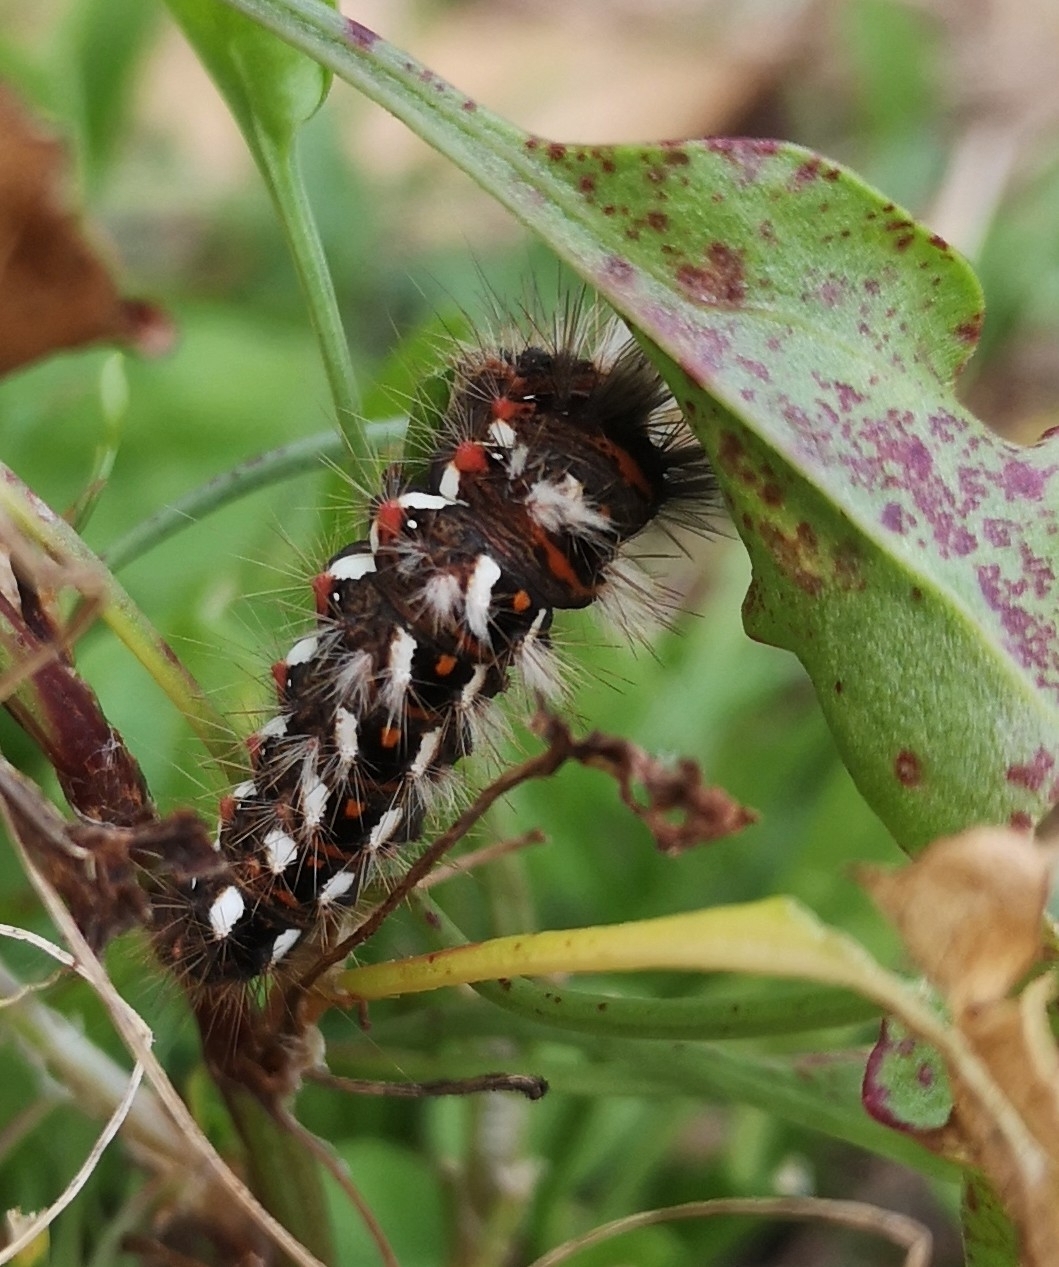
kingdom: Animalia
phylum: Arthropoda
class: Insecta
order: Lepidoptera
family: Noctuidae
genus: Acronicta
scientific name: Acronicta rumicis
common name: Knot grass
